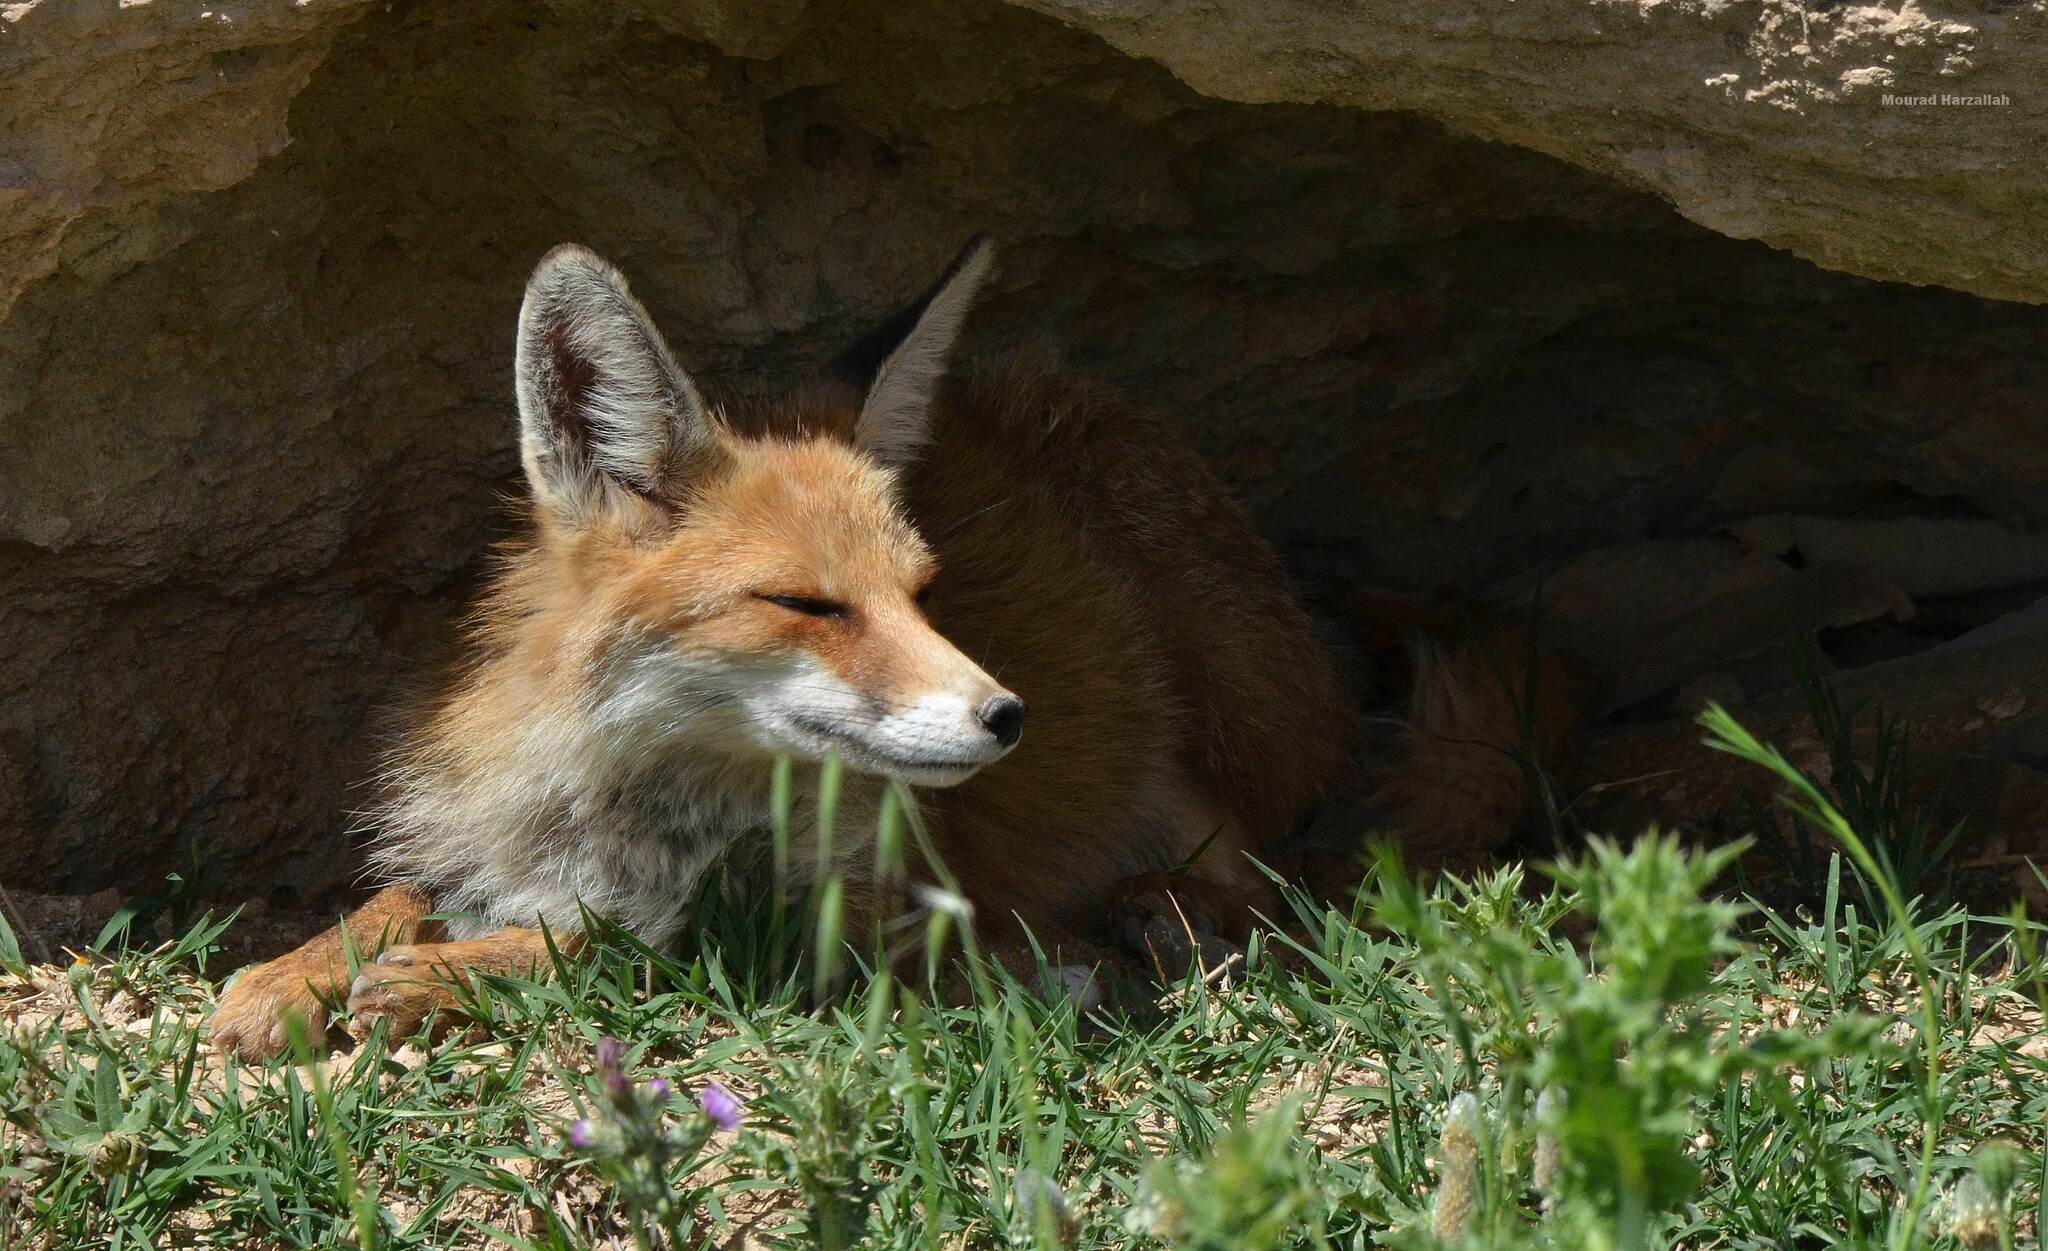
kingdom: Animalia
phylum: Chordata
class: Mammalia
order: Carnivora
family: Canidae
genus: Vulpes
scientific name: Vulpes vulpes
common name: Red fox
